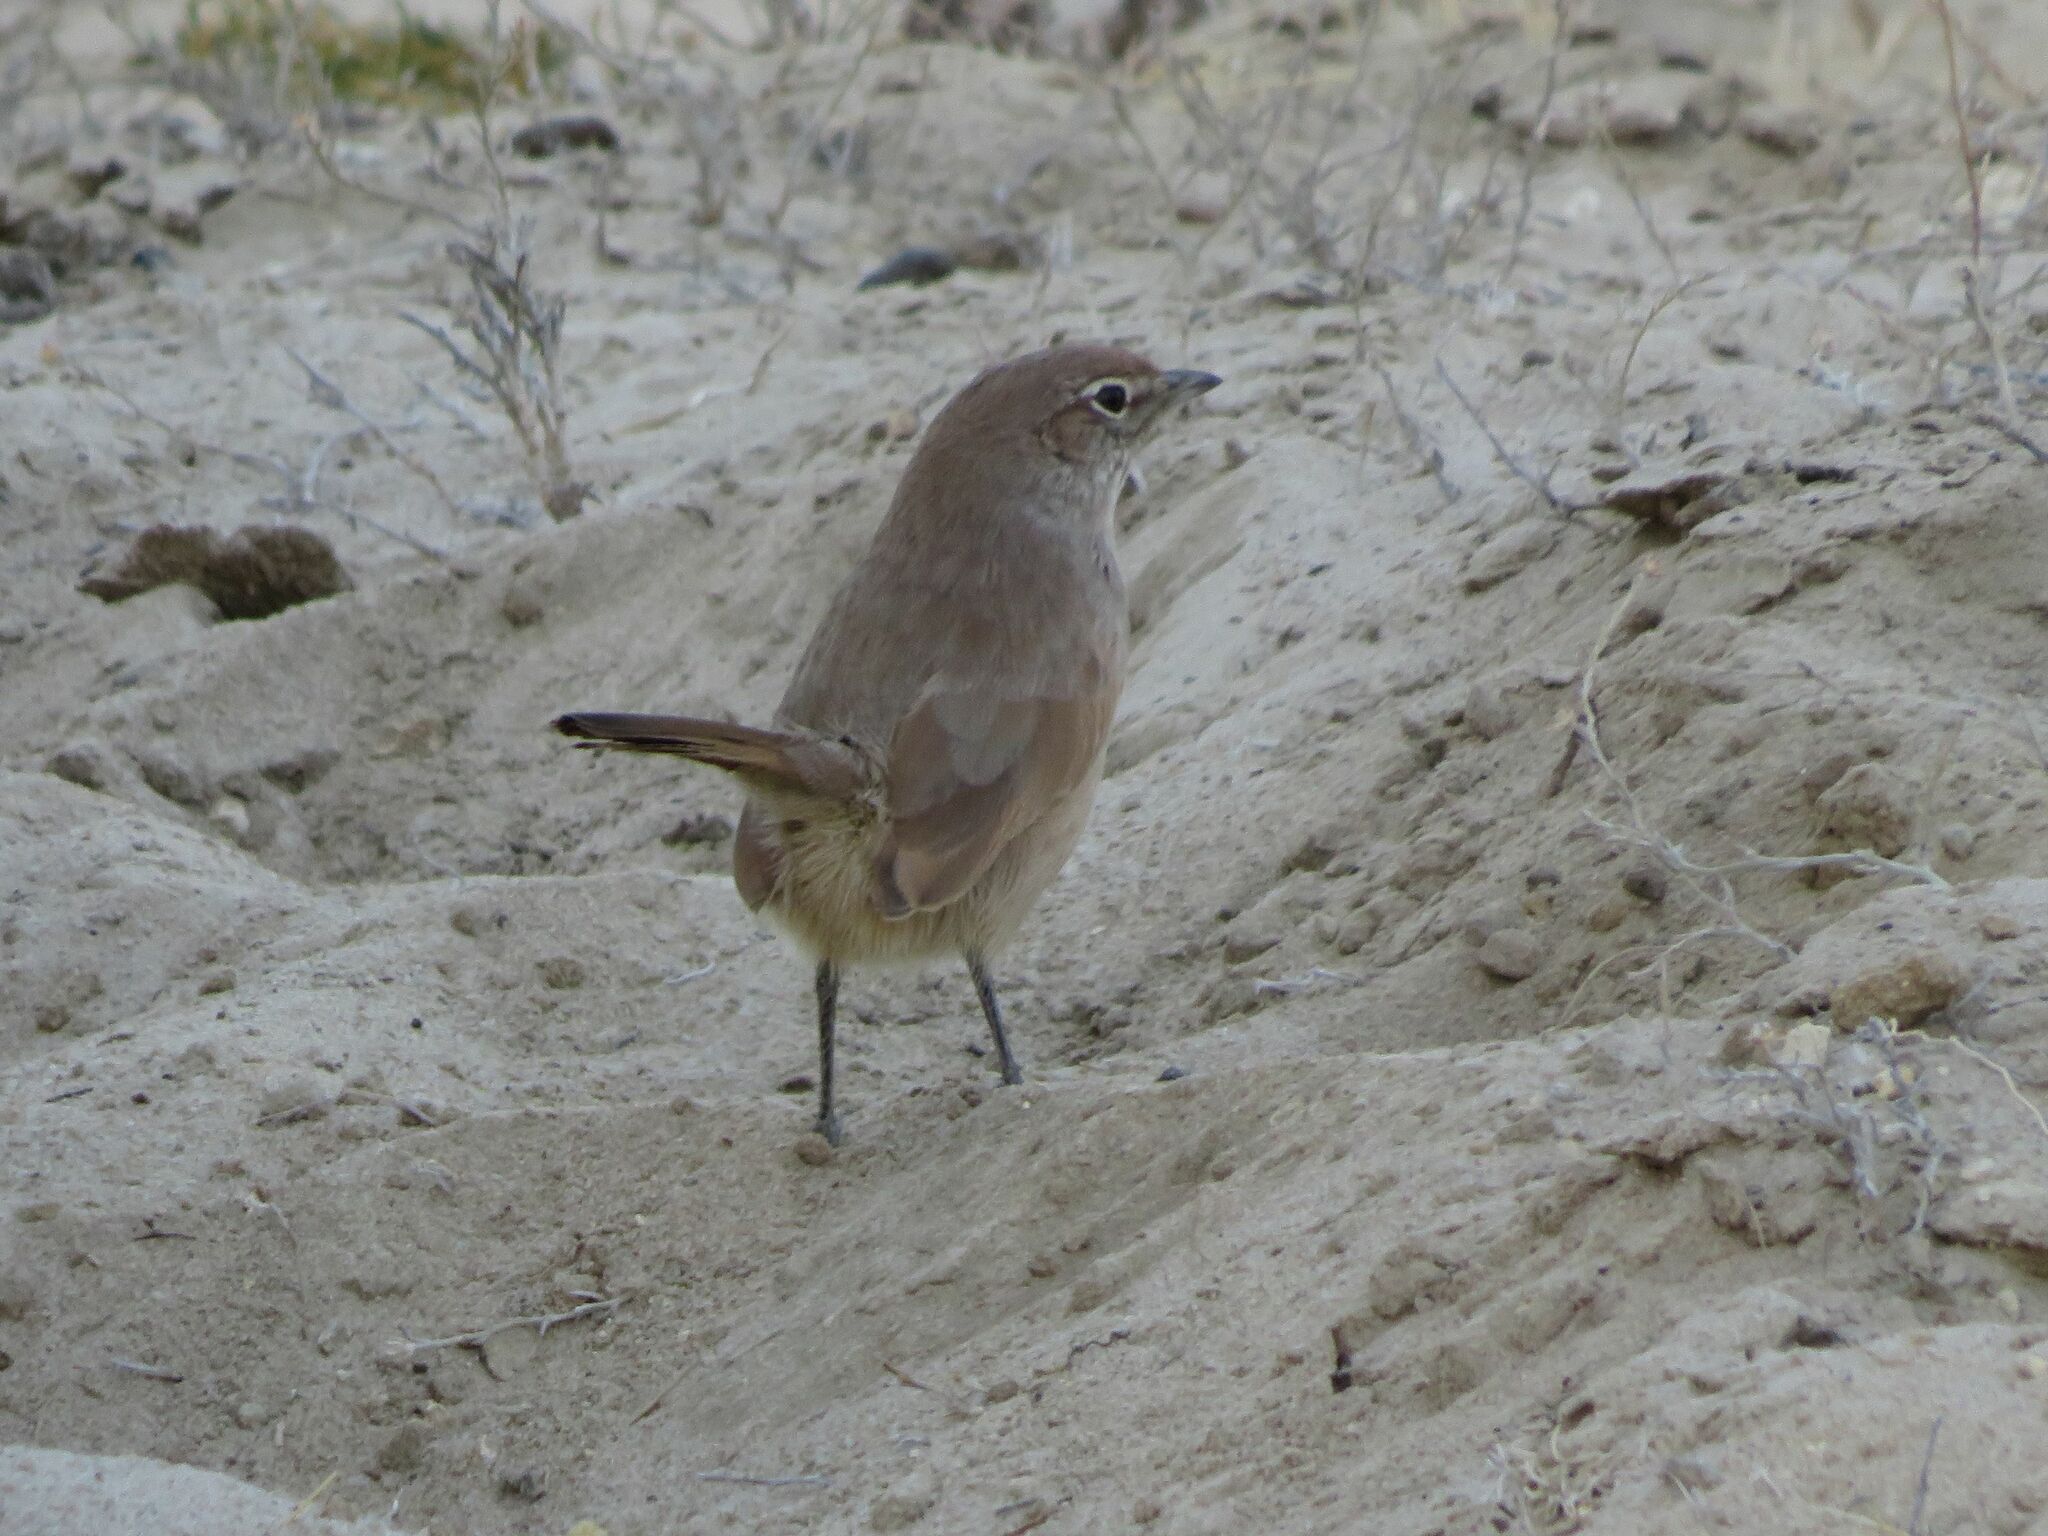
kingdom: Animalia
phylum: Chordata
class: Aves
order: Passeriformes
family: Rhinocryptidae
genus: Teledromas
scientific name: Teledromas fuscus
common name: Sandy gallito
